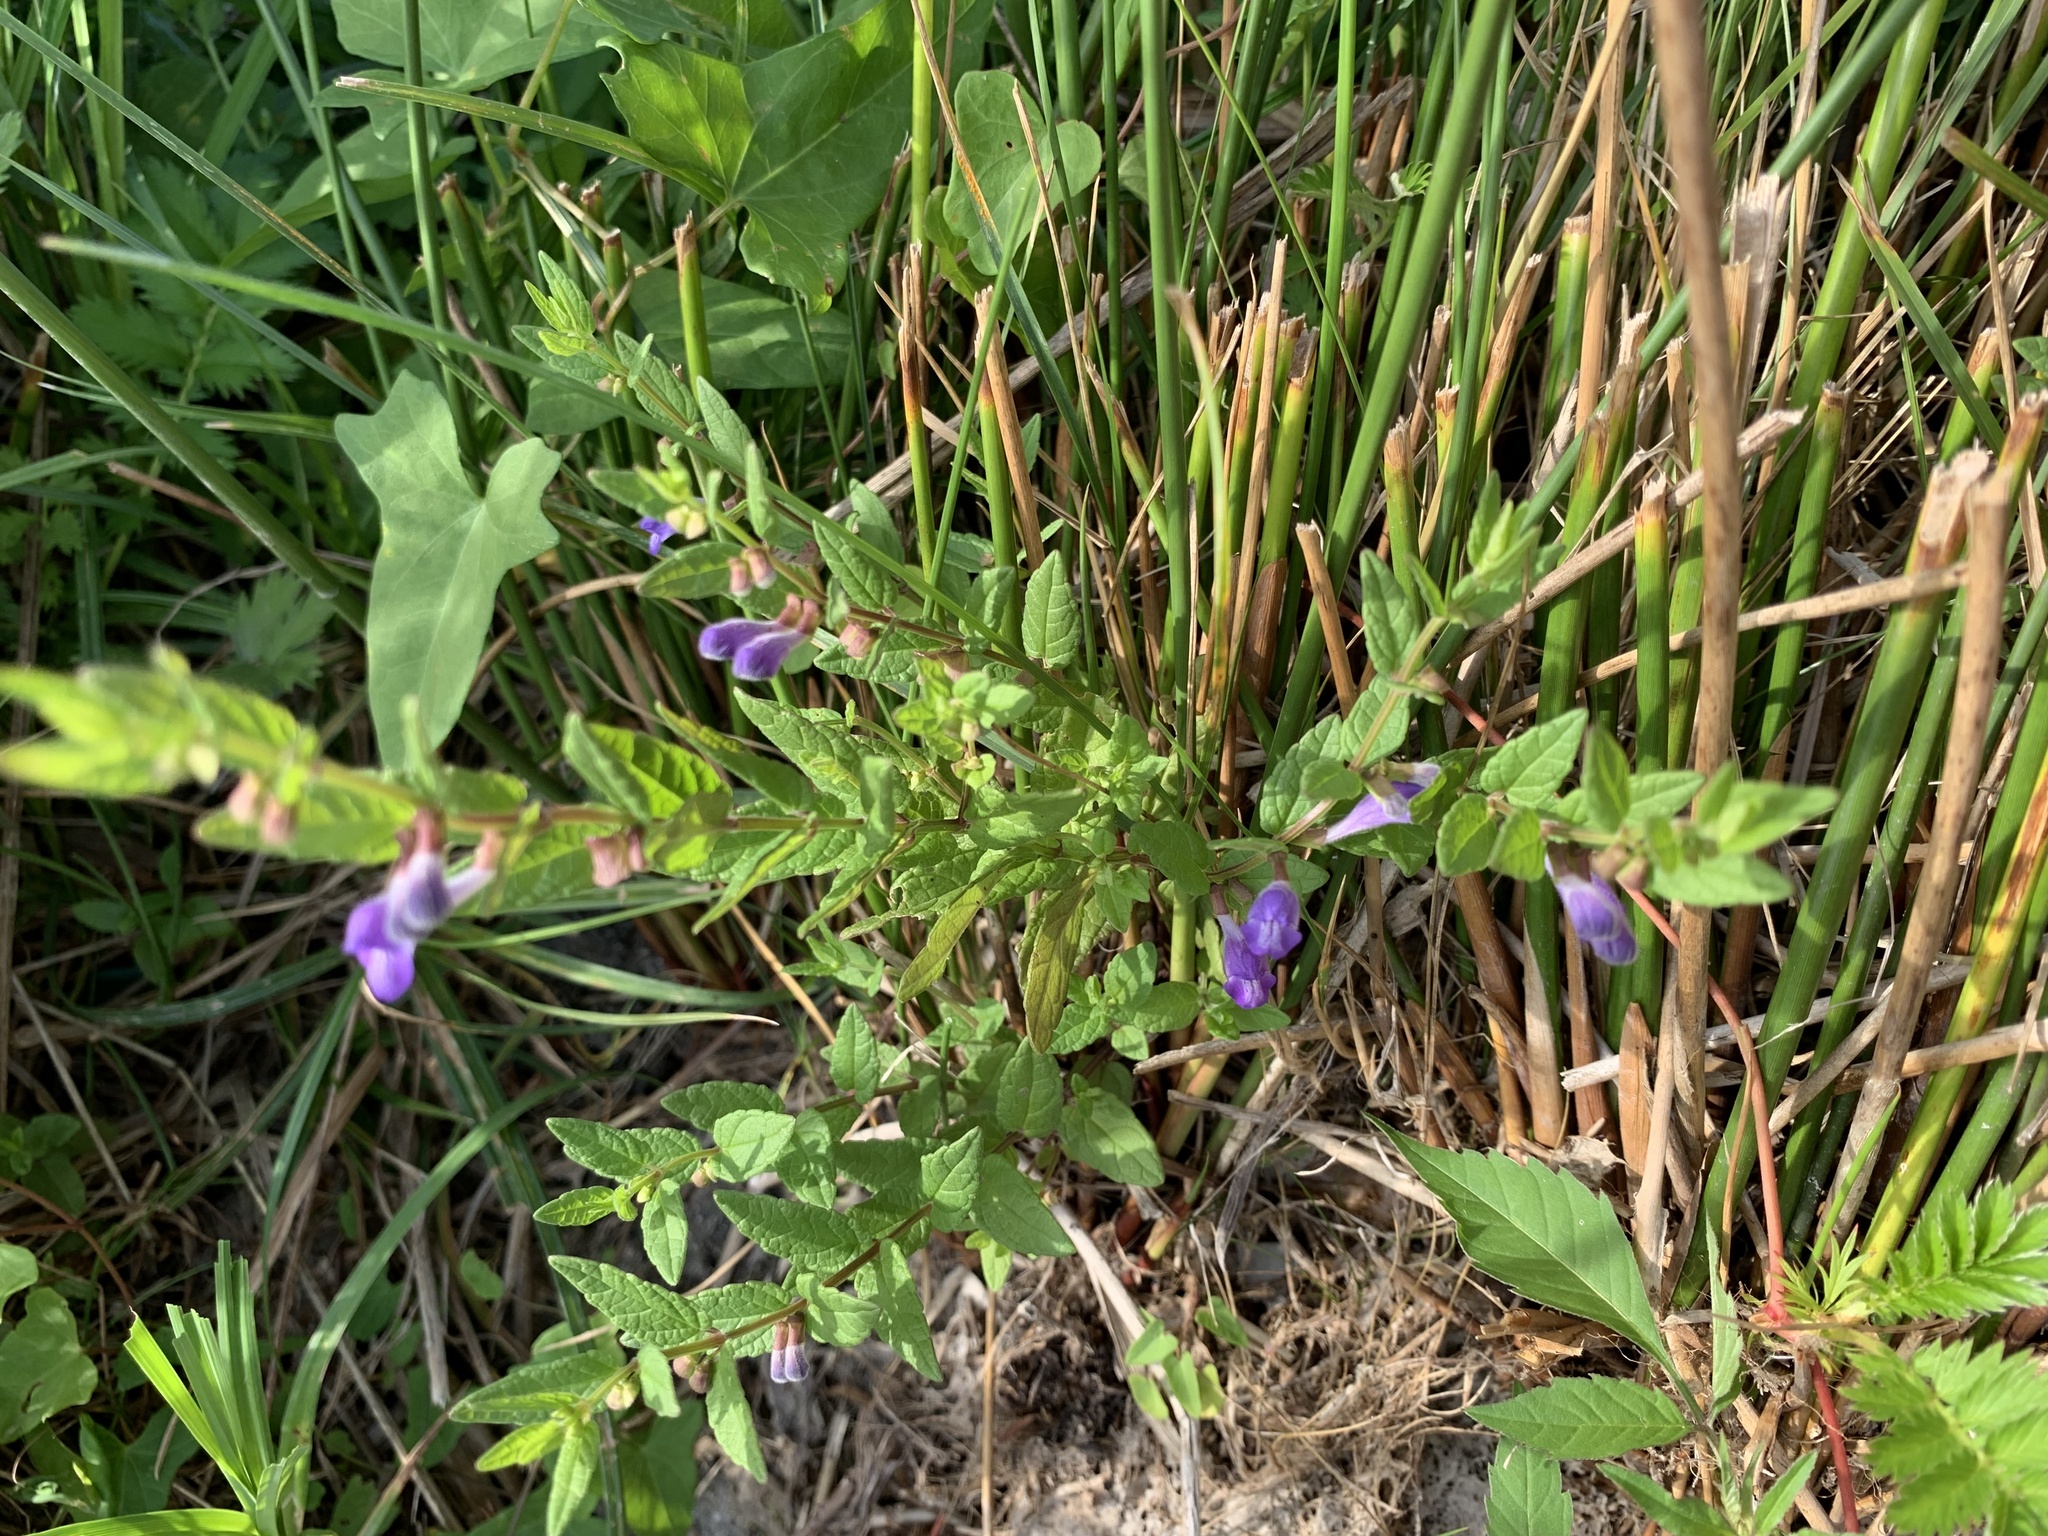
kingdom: Plantae
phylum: Tracheophyta
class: Magnoliopsida
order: Lamiales
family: Lamiaceae
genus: Scutellaria
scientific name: Scutellaria galericulata
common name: Skullcap
